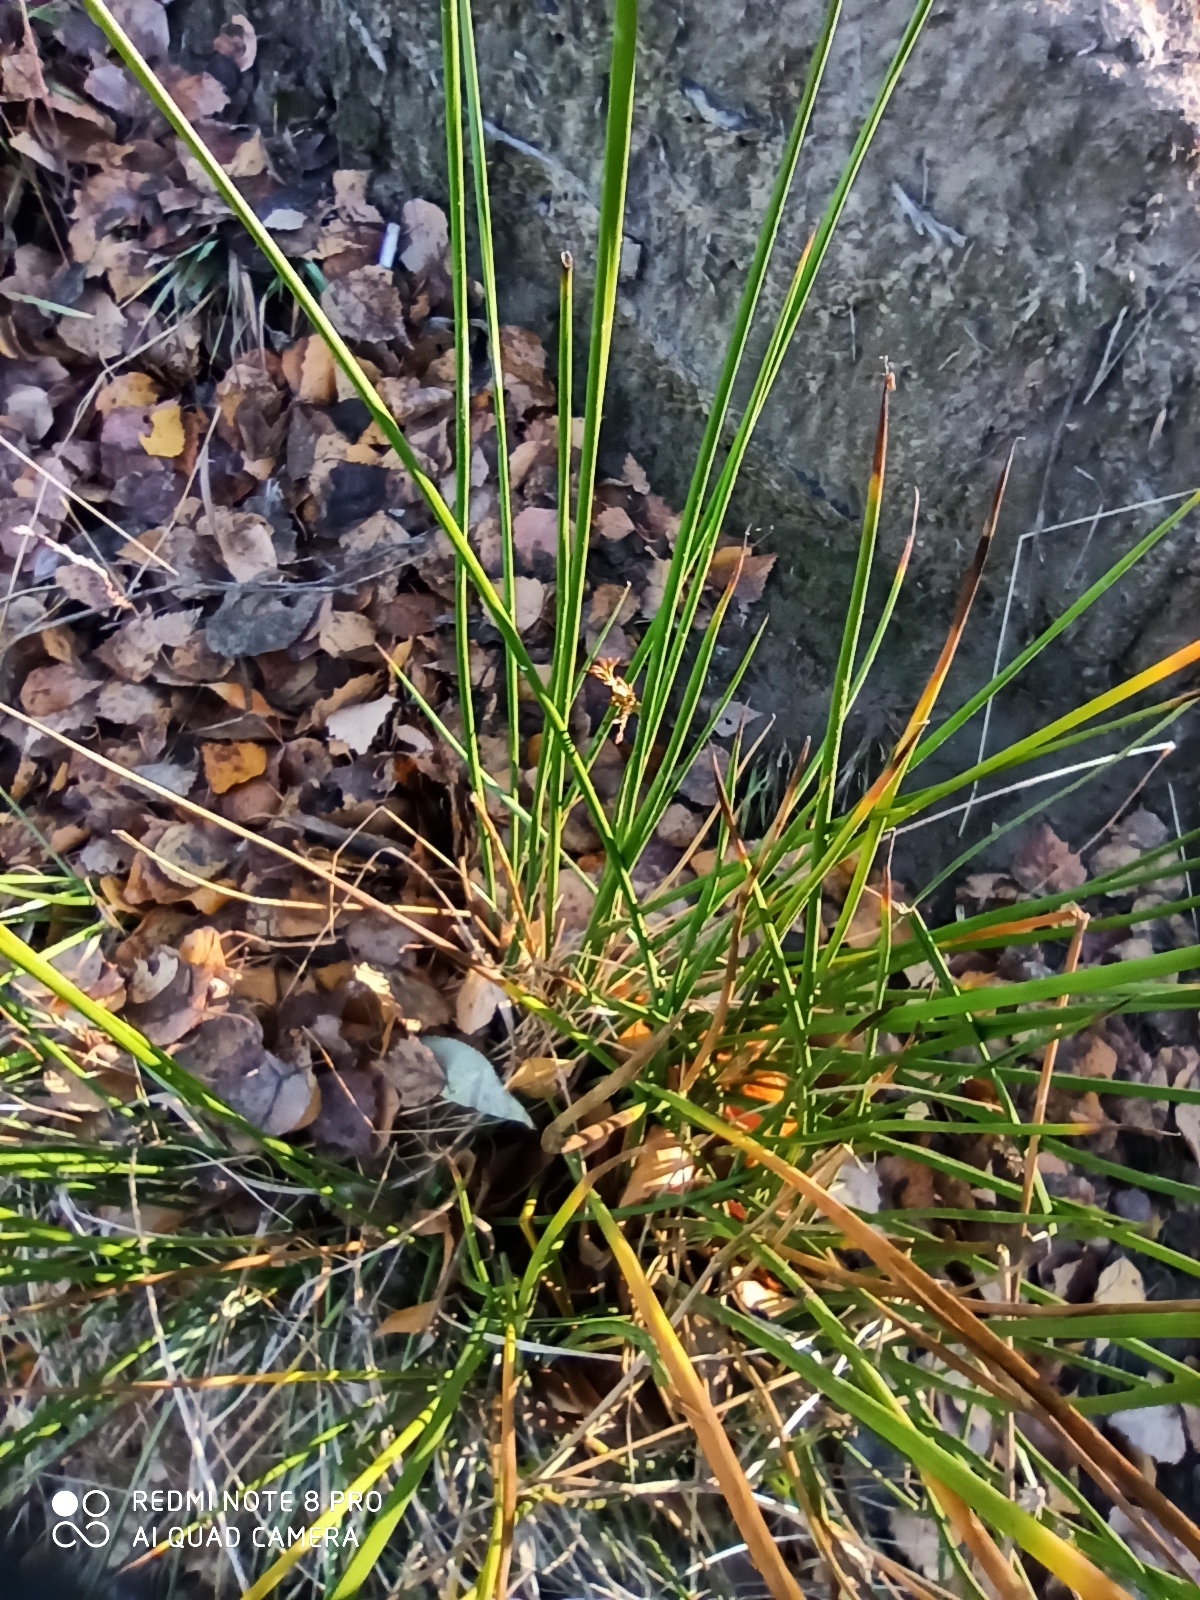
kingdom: Plantae
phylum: Tracheophyta
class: Liliopsida
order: Poales
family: Juncaceae
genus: Juncus
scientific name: Juncus effusus
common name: Soft rush
